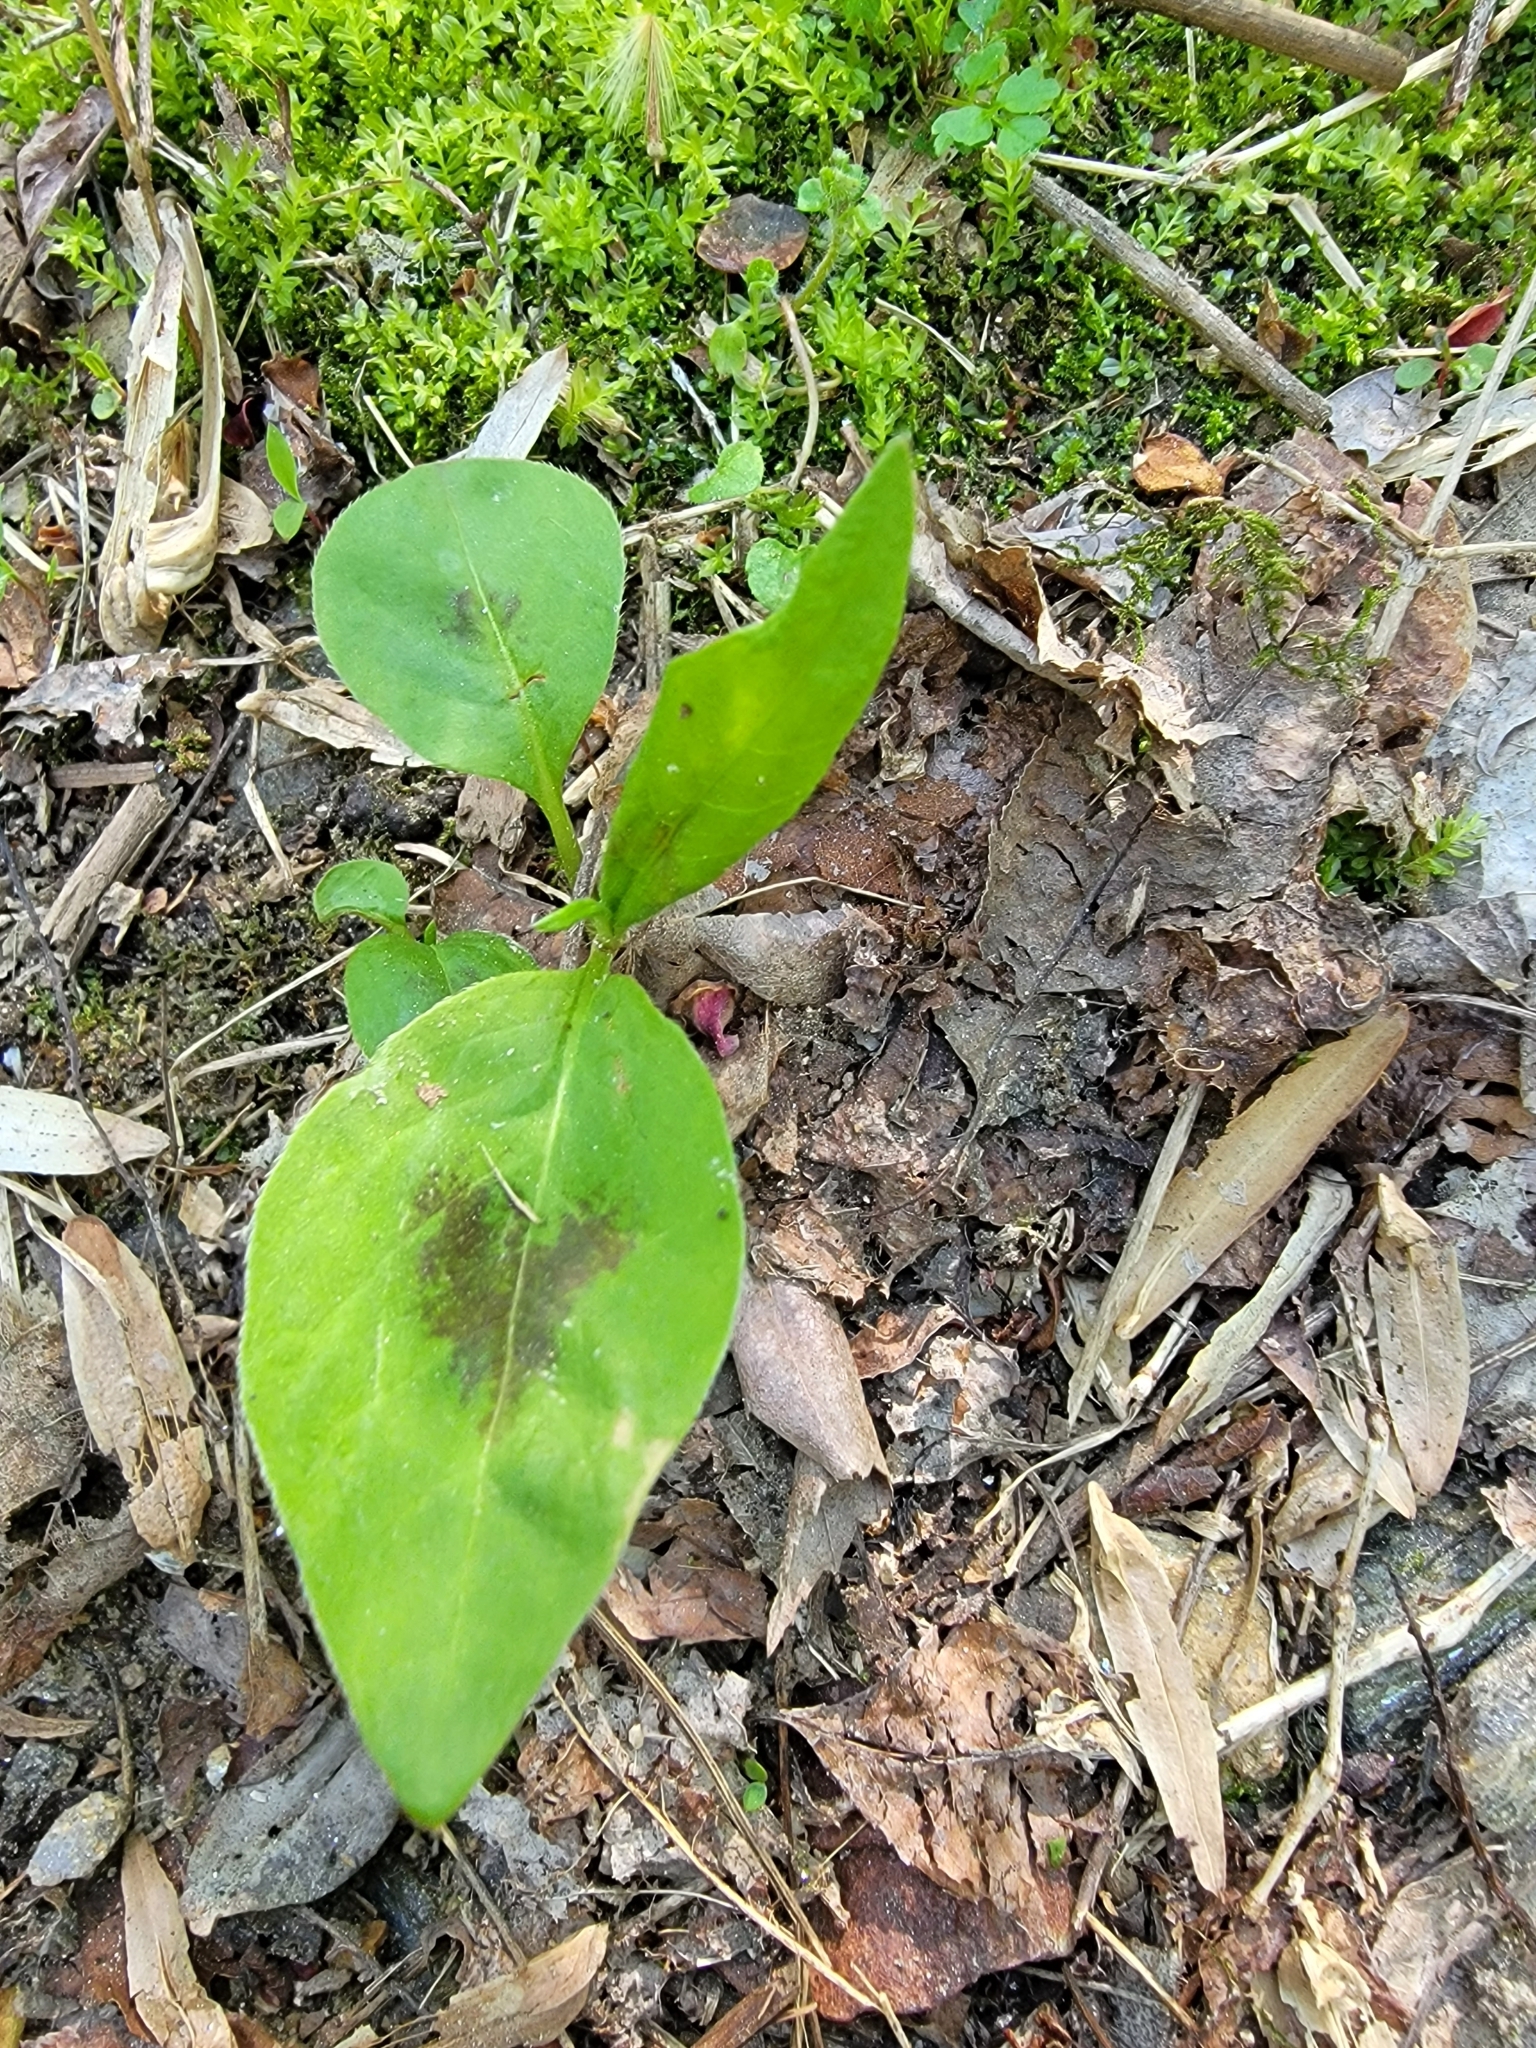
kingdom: Plantae
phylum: Tracheophyta
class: Magnoliopsida
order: Caryophyllales
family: Polygonaceae
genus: Persicaria
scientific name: Persicaria virginiana
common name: Jumpseed
